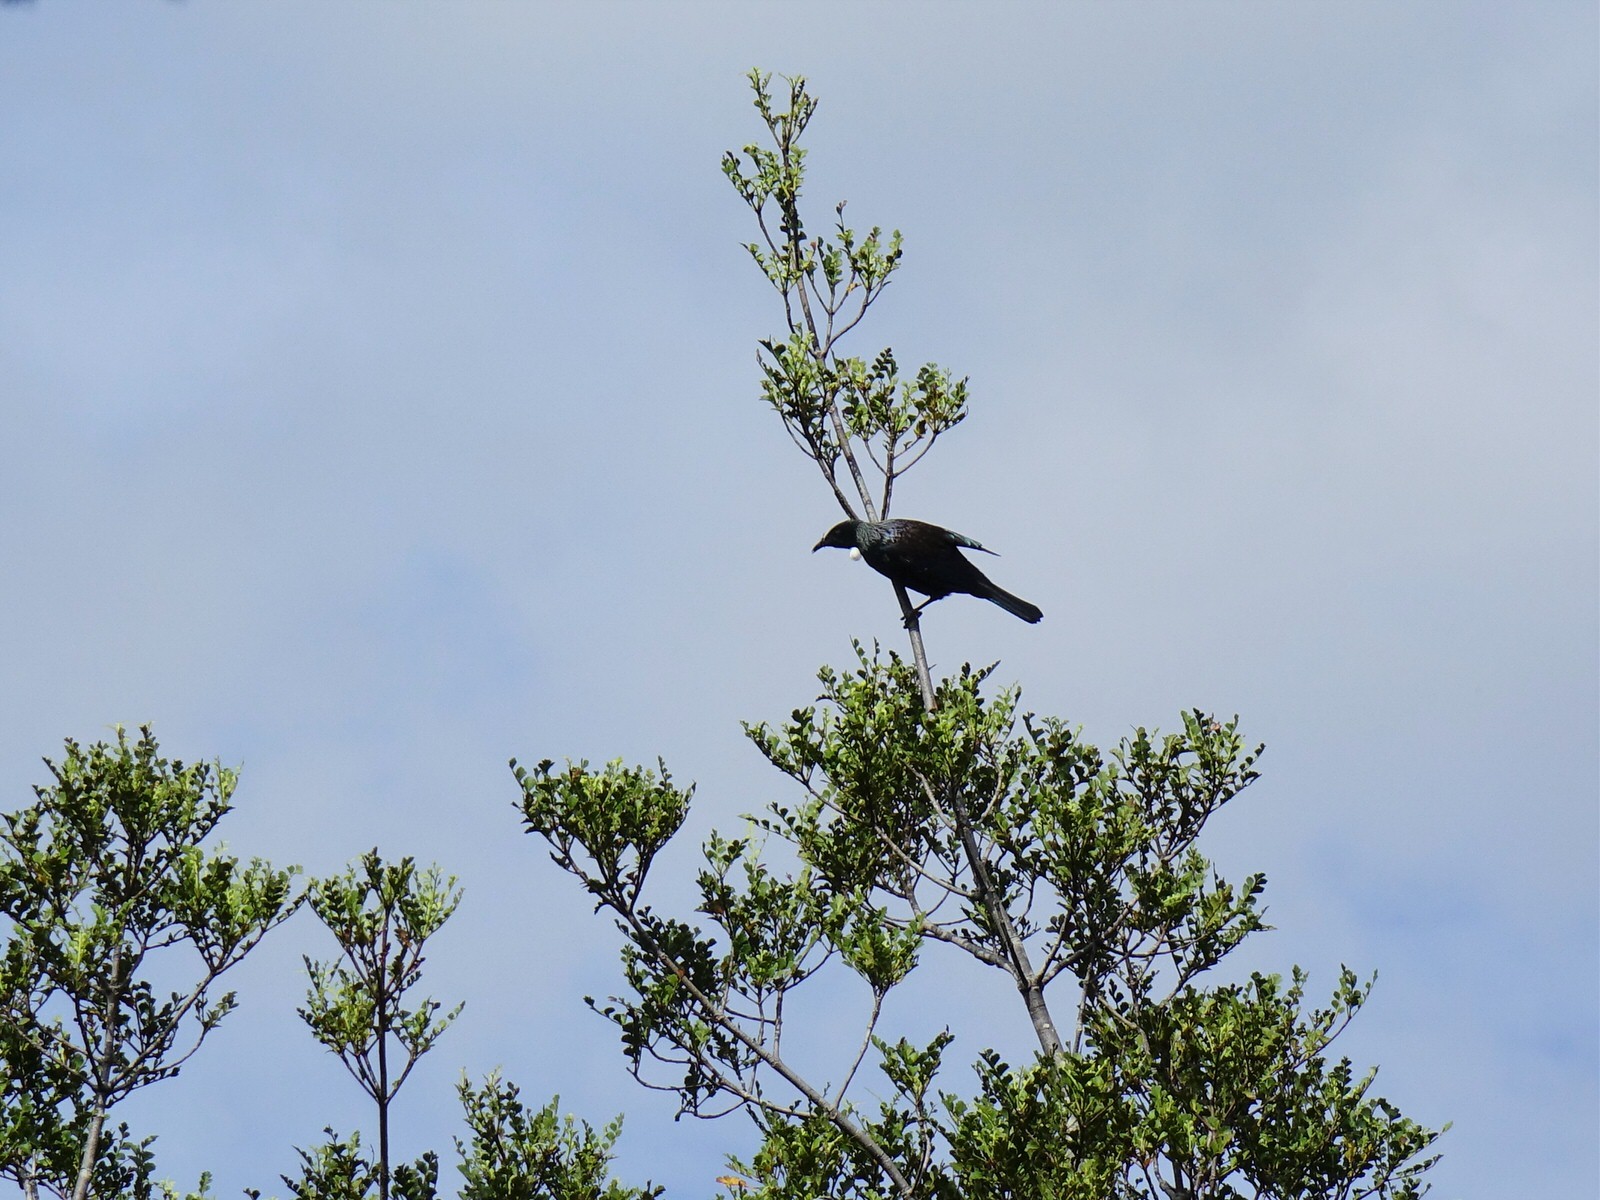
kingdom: Animalia
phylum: Chordata
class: Aves
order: Passeriformes
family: Meliphagidae
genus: Prosthemadera
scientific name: Prosthemadera novaeseelandiae
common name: Tui
